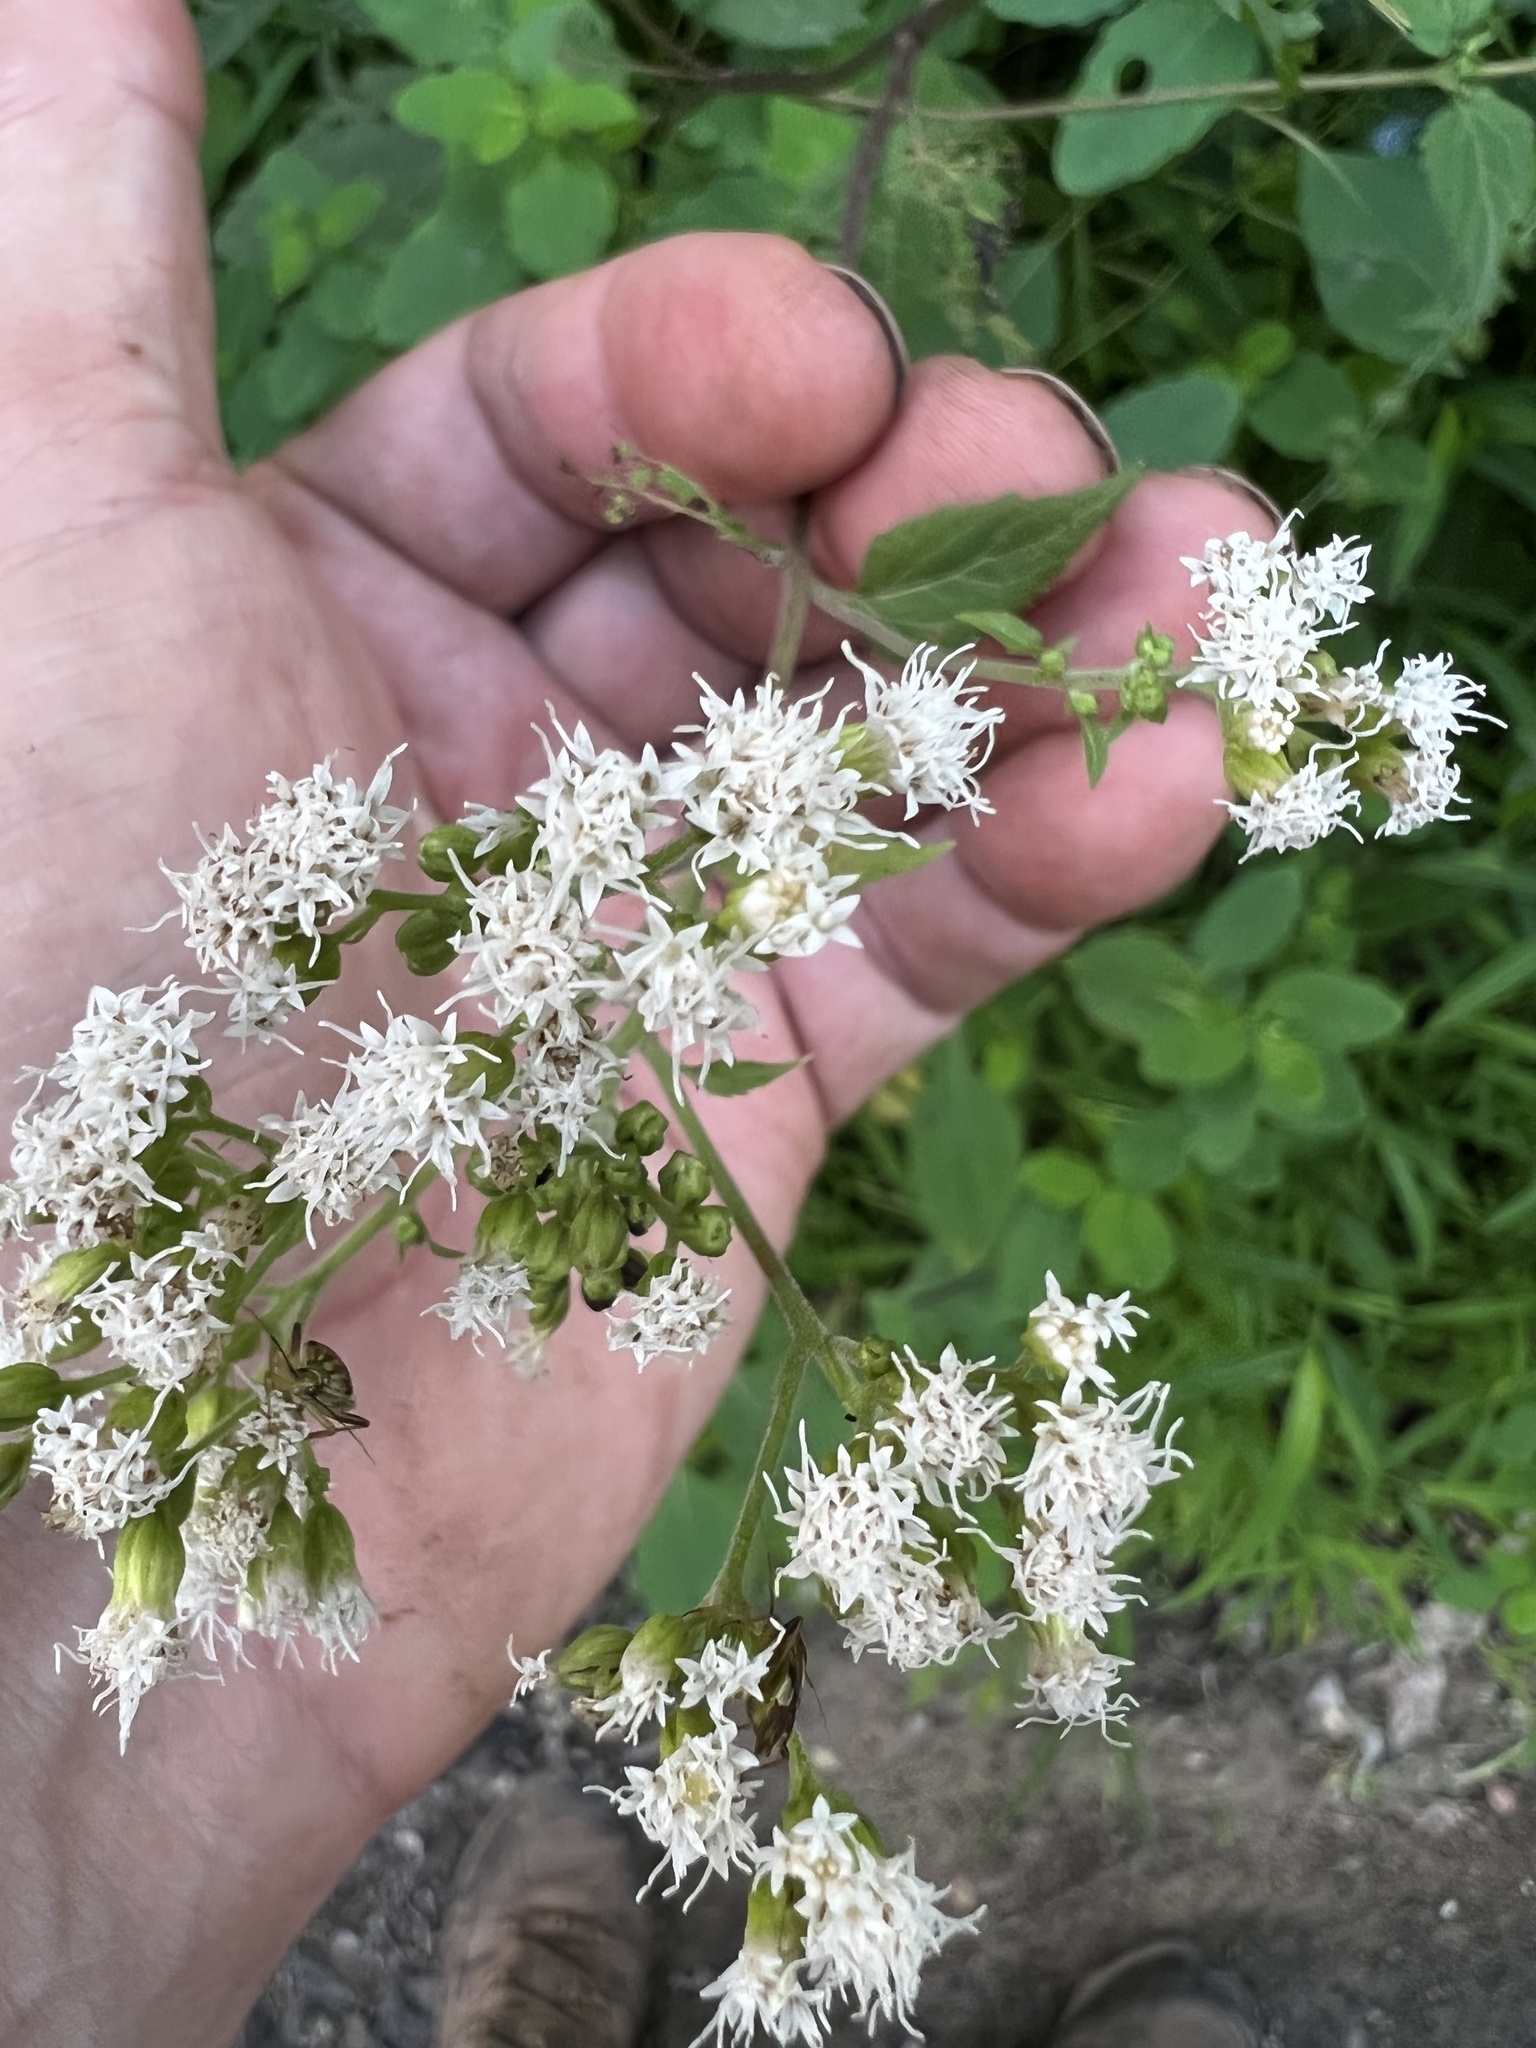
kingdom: Plantae
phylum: Tracheophyta
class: Magnoliopsida
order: Asterales
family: Asteraceae
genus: Ageratina
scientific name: Ageratina altissima
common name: White snakeroot
